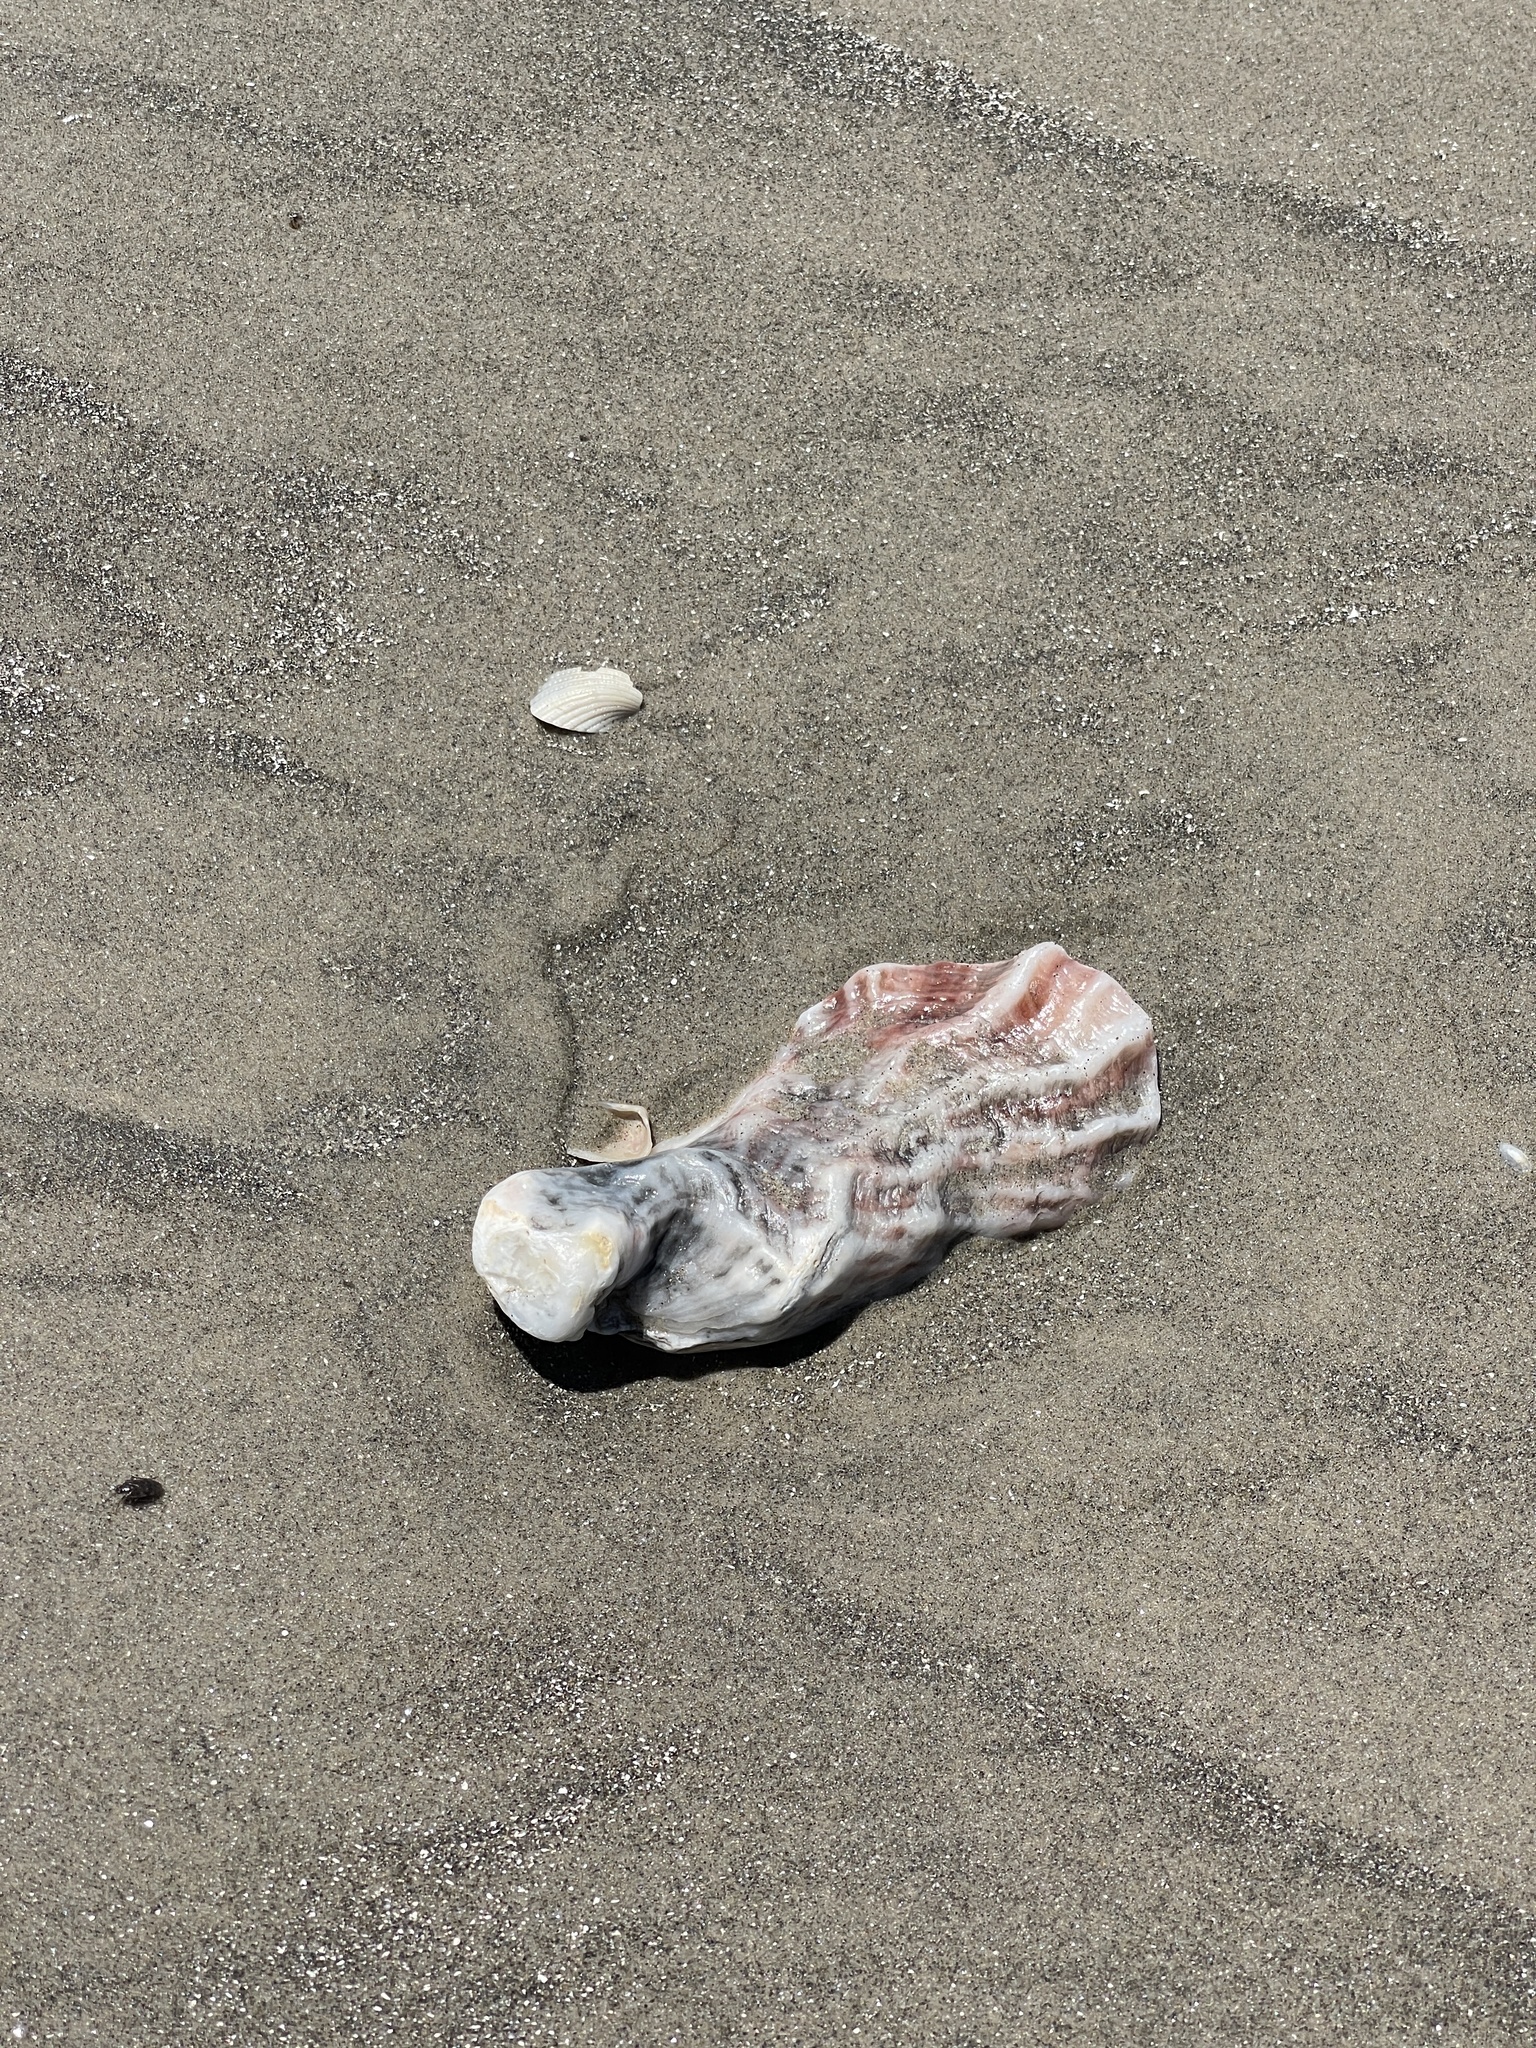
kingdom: Animalia
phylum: Mollusca
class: Bivalvia
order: Ostreida
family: Ostreidae
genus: Crassostrea
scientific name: Crassostrea virginica
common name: American oyster
